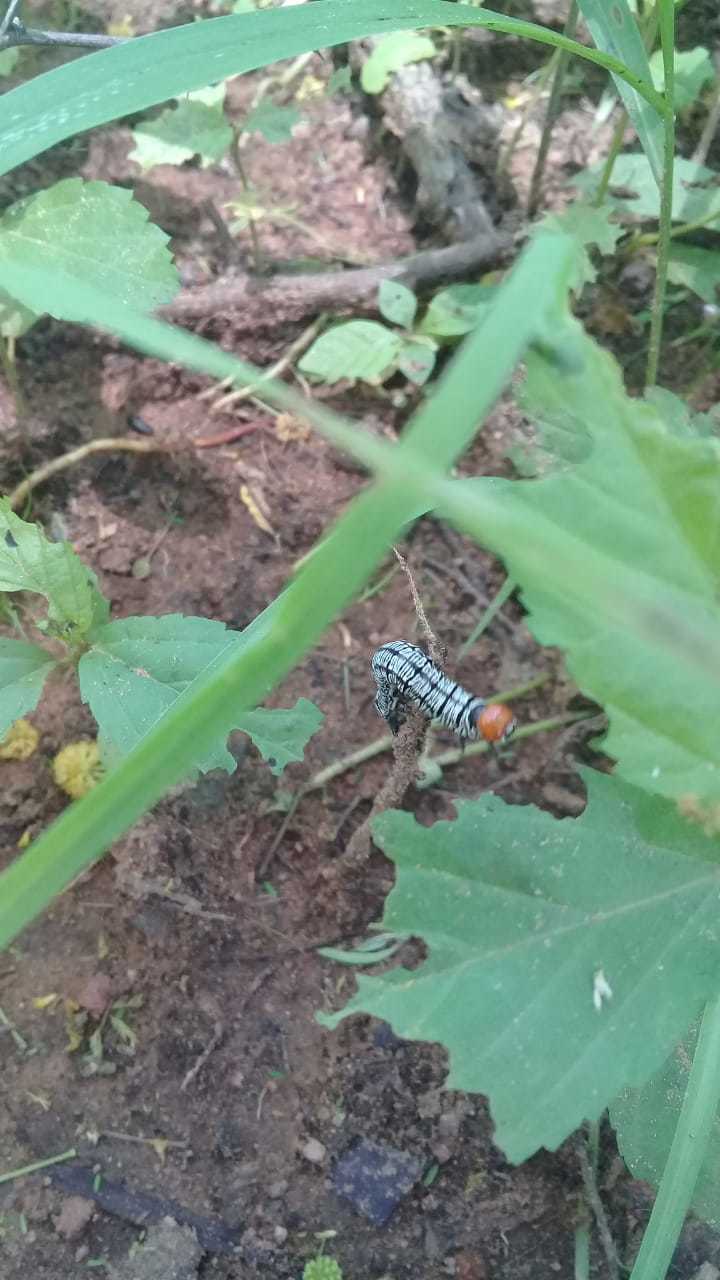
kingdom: Animalia
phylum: Arthropoda
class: Insecta
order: Lepidoptera
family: Erebidae
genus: Diphthera
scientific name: Diphthera festiva
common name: Hieroglyphic moth
